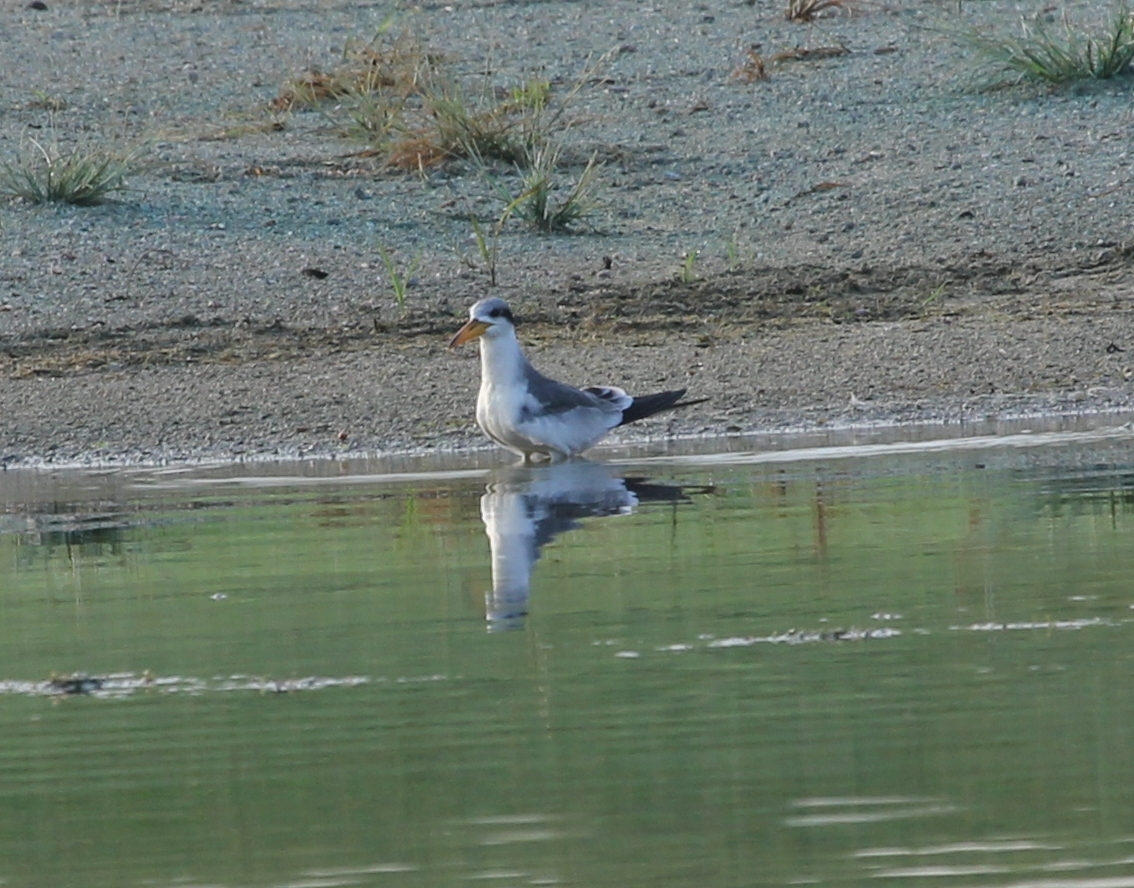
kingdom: Animalia
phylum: Chordata
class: Aves
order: Charadriiformes
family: Laridae
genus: Phaetusa
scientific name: Phaetusa simplex
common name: Large-billed tern
